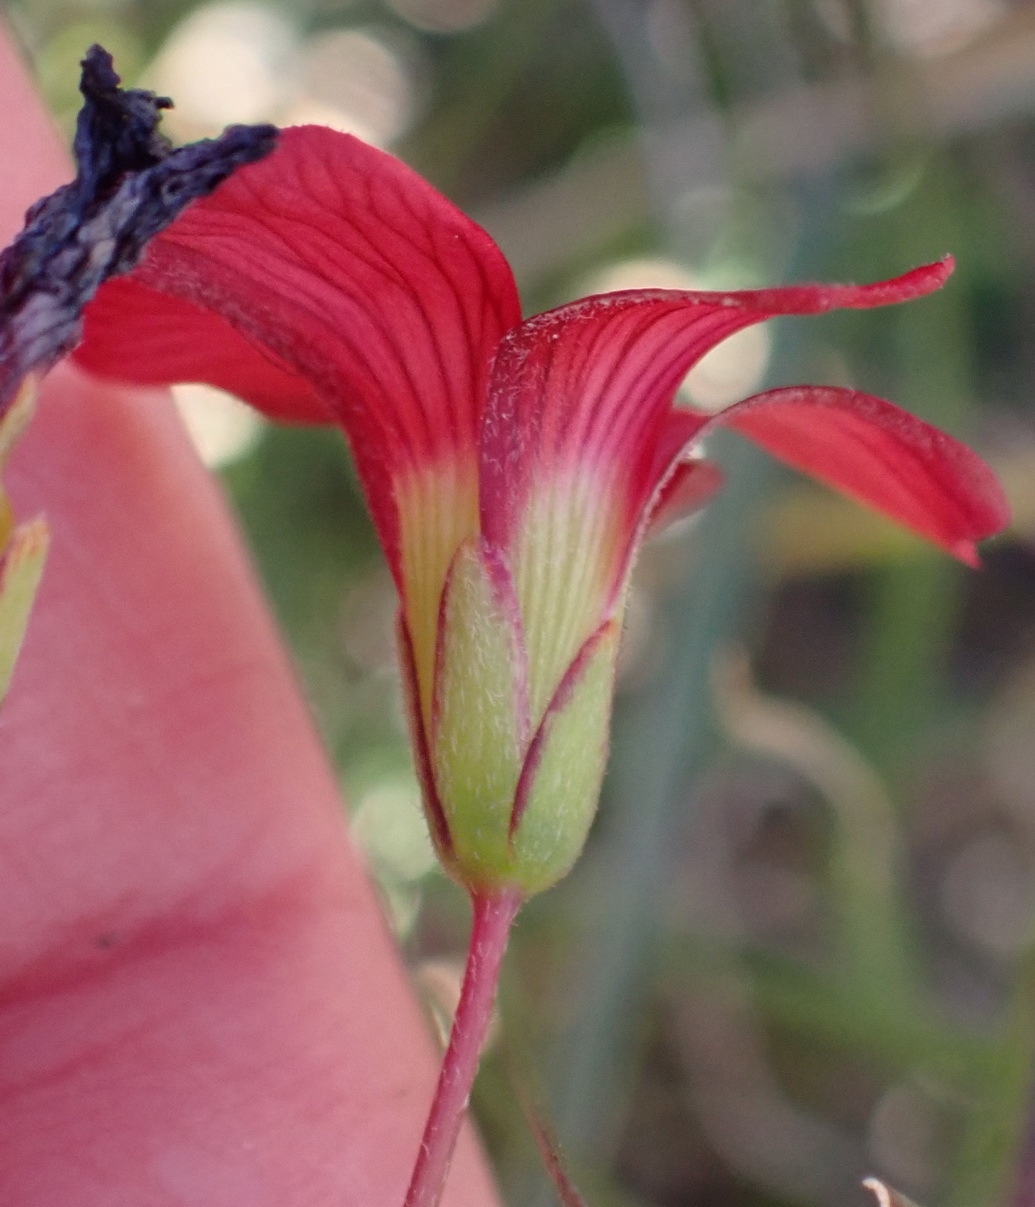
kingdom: Plantae
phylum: Tracheophyta
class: Magnoliopsida
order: Oxalidales
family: Oxalidaceae
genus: Oxalis
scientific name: Oxalis pendulifolia
